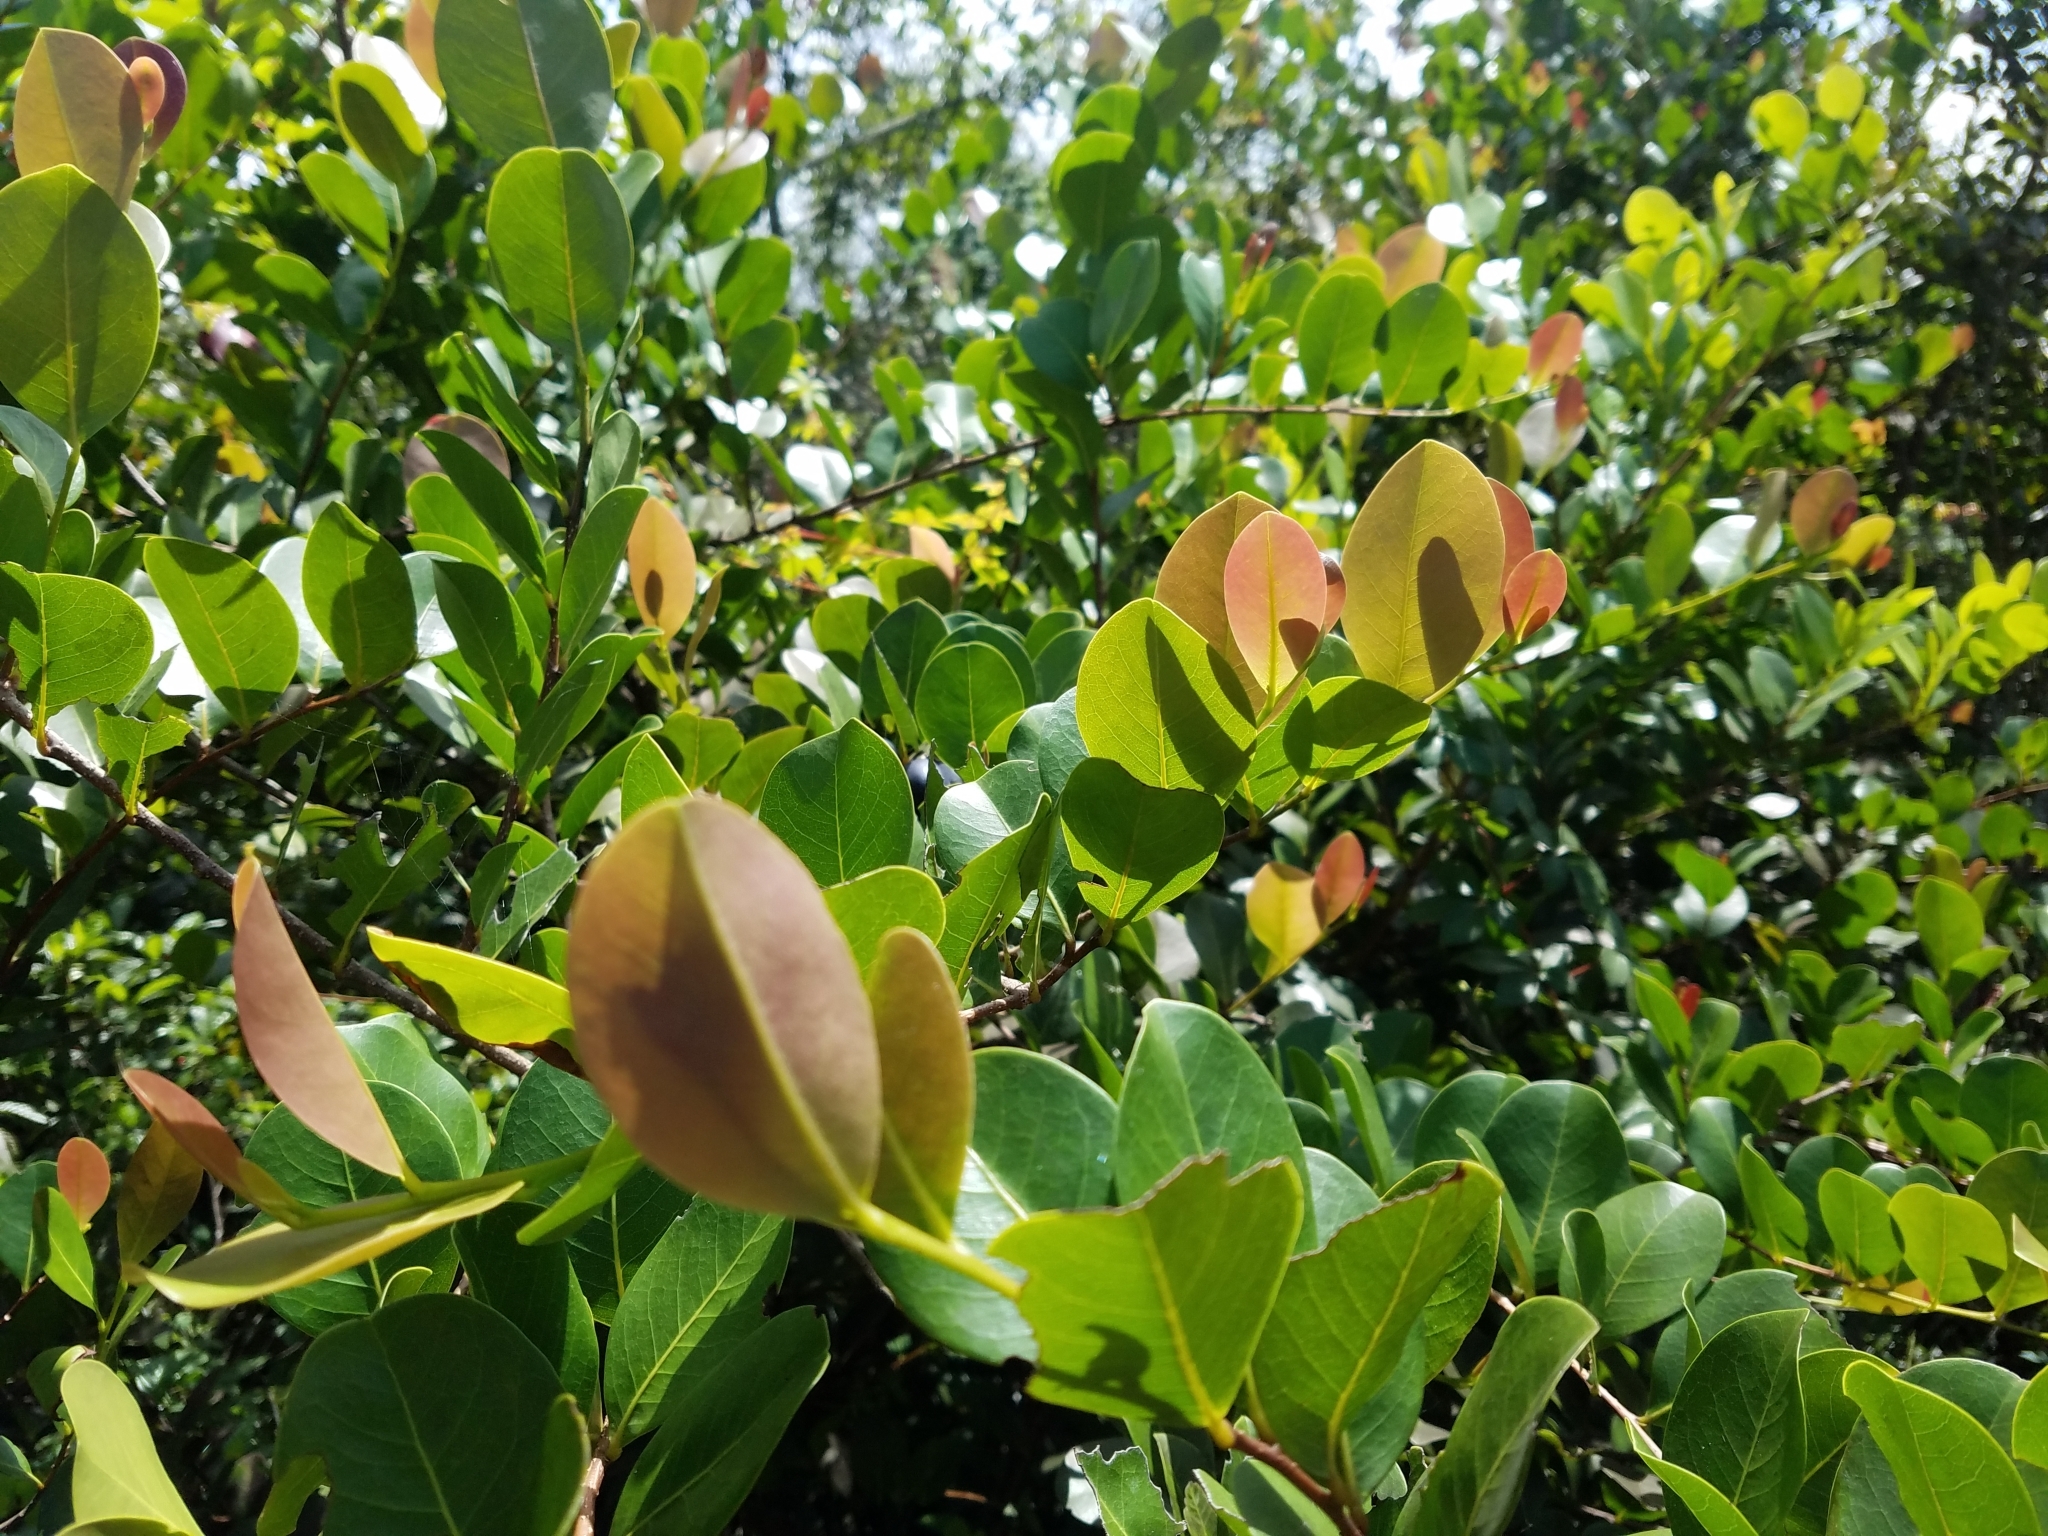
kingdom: Plantae
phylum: Tracheophyta
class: Magnoliopsida
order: Malpighiales
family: Chrysobalanaceae
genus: Chrysobalanus
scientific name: Chrysobalanus icaco
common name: Coco plum
